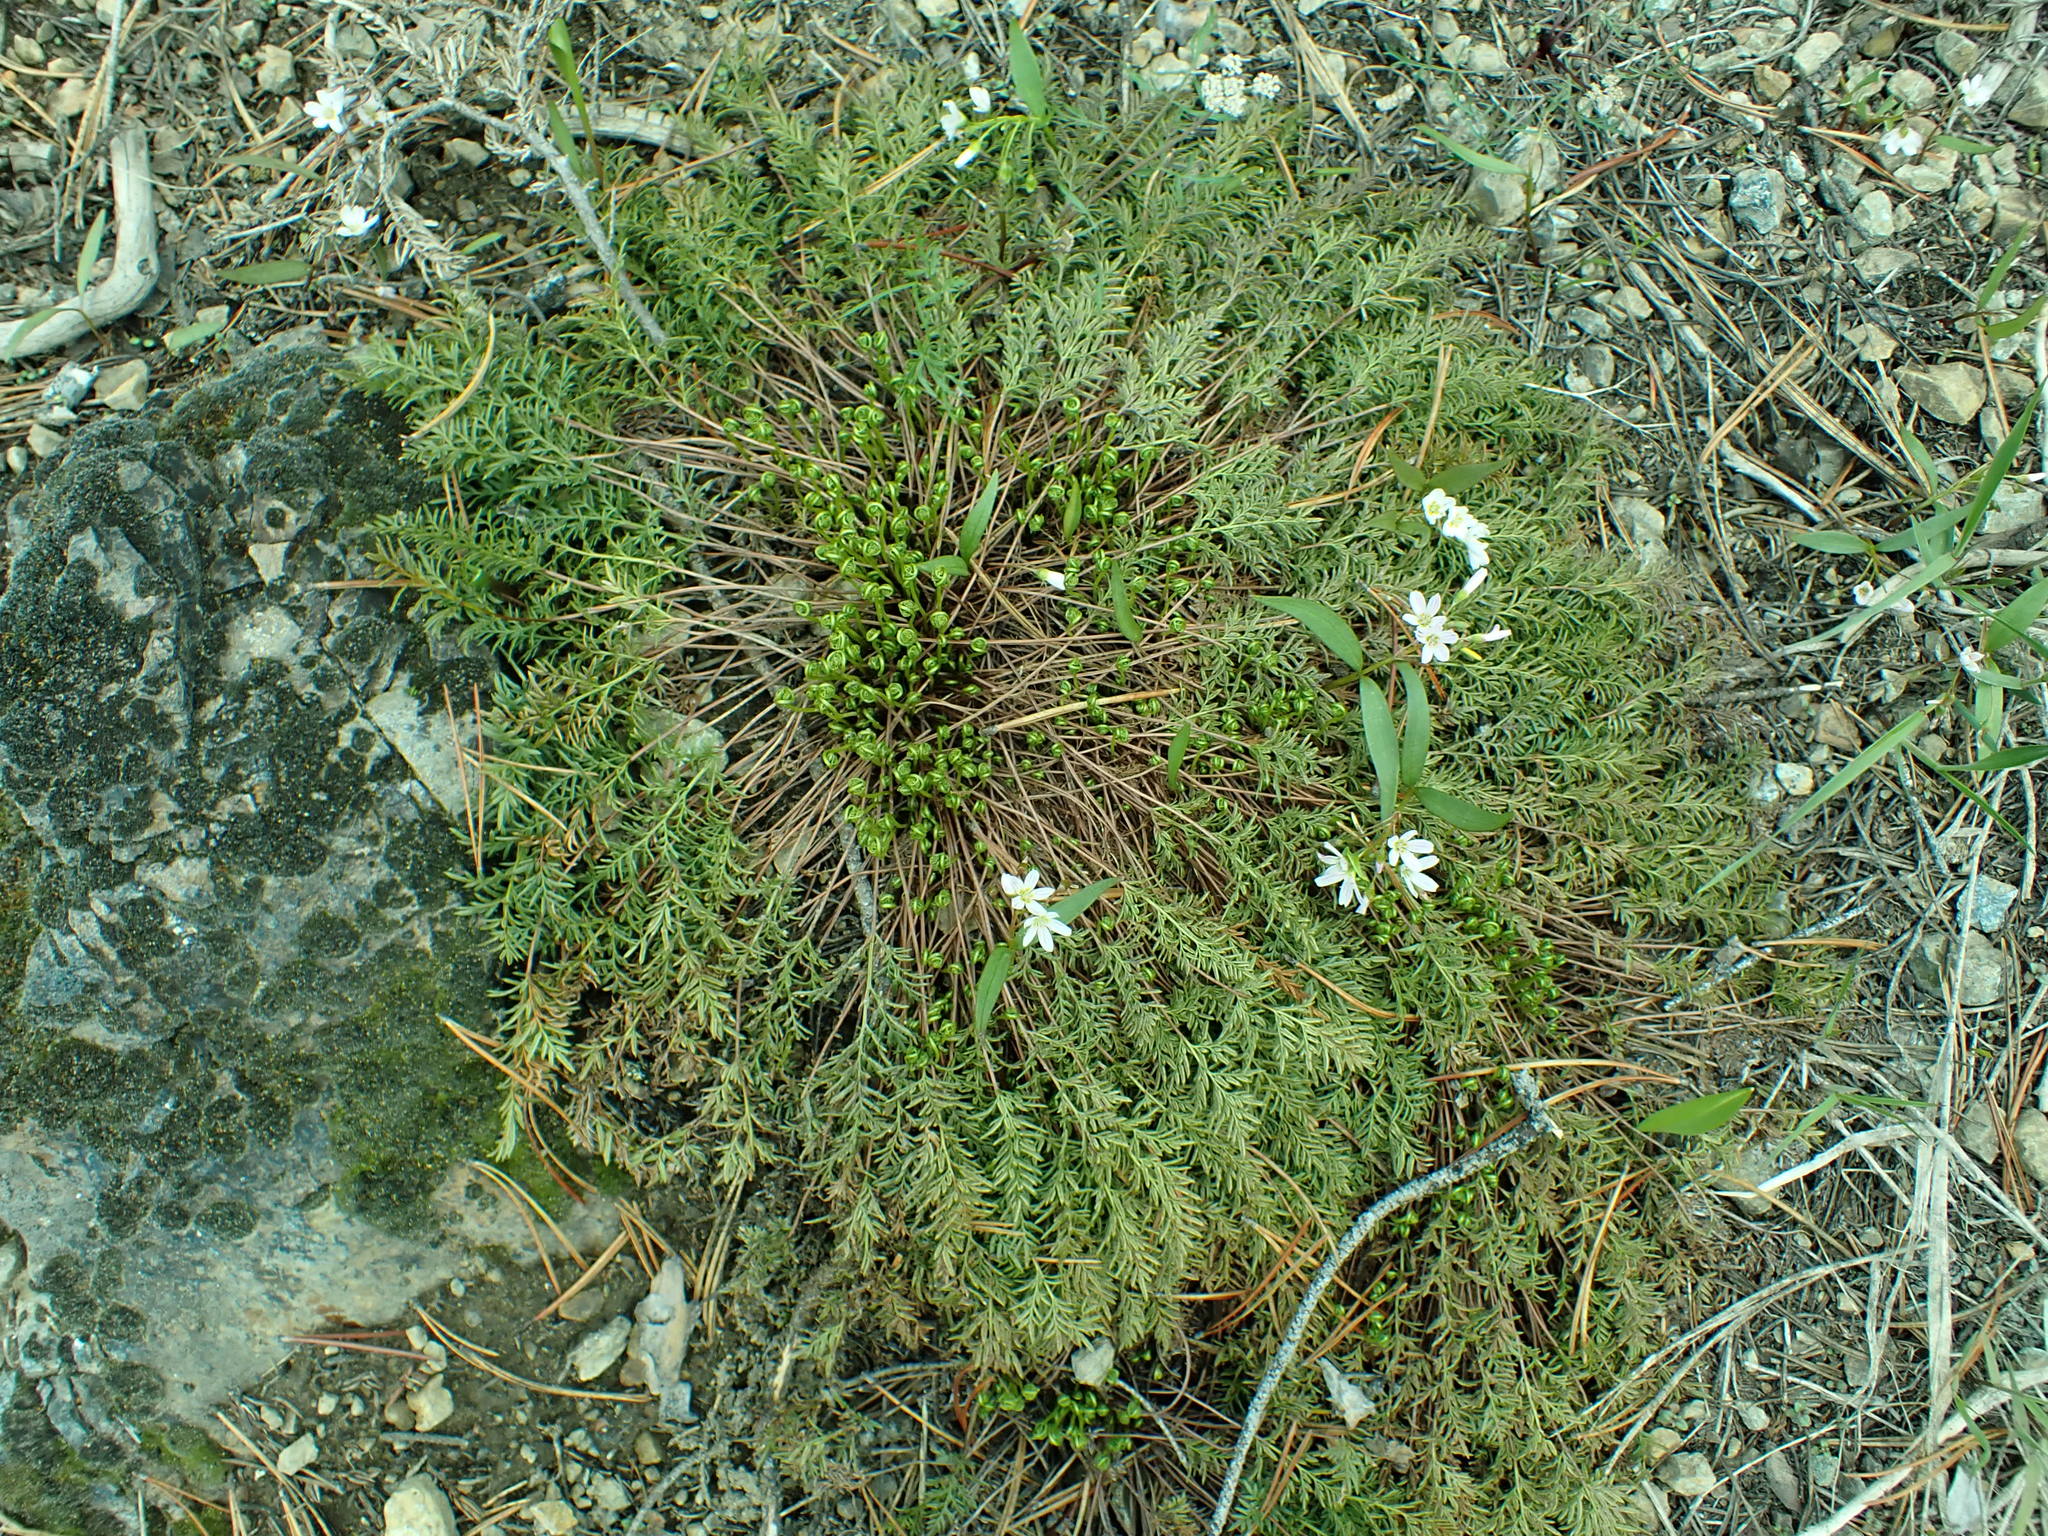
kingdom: Plantae
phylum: Tracheophyta
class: Polypodiopsida
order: Polypodiales
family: Pteridaceae
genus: Aspidotis
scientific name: Aspidotis densa
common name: Indian's dream
